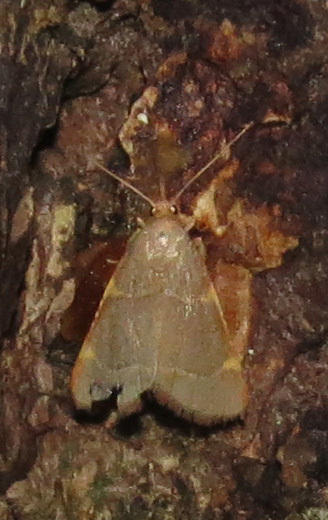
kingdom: Animalia
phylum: Arthropoda
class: Insecta
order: Lepidoptera
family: Pyralidae
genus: Hypsopygia
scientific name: Hypsopygia binodulalis
